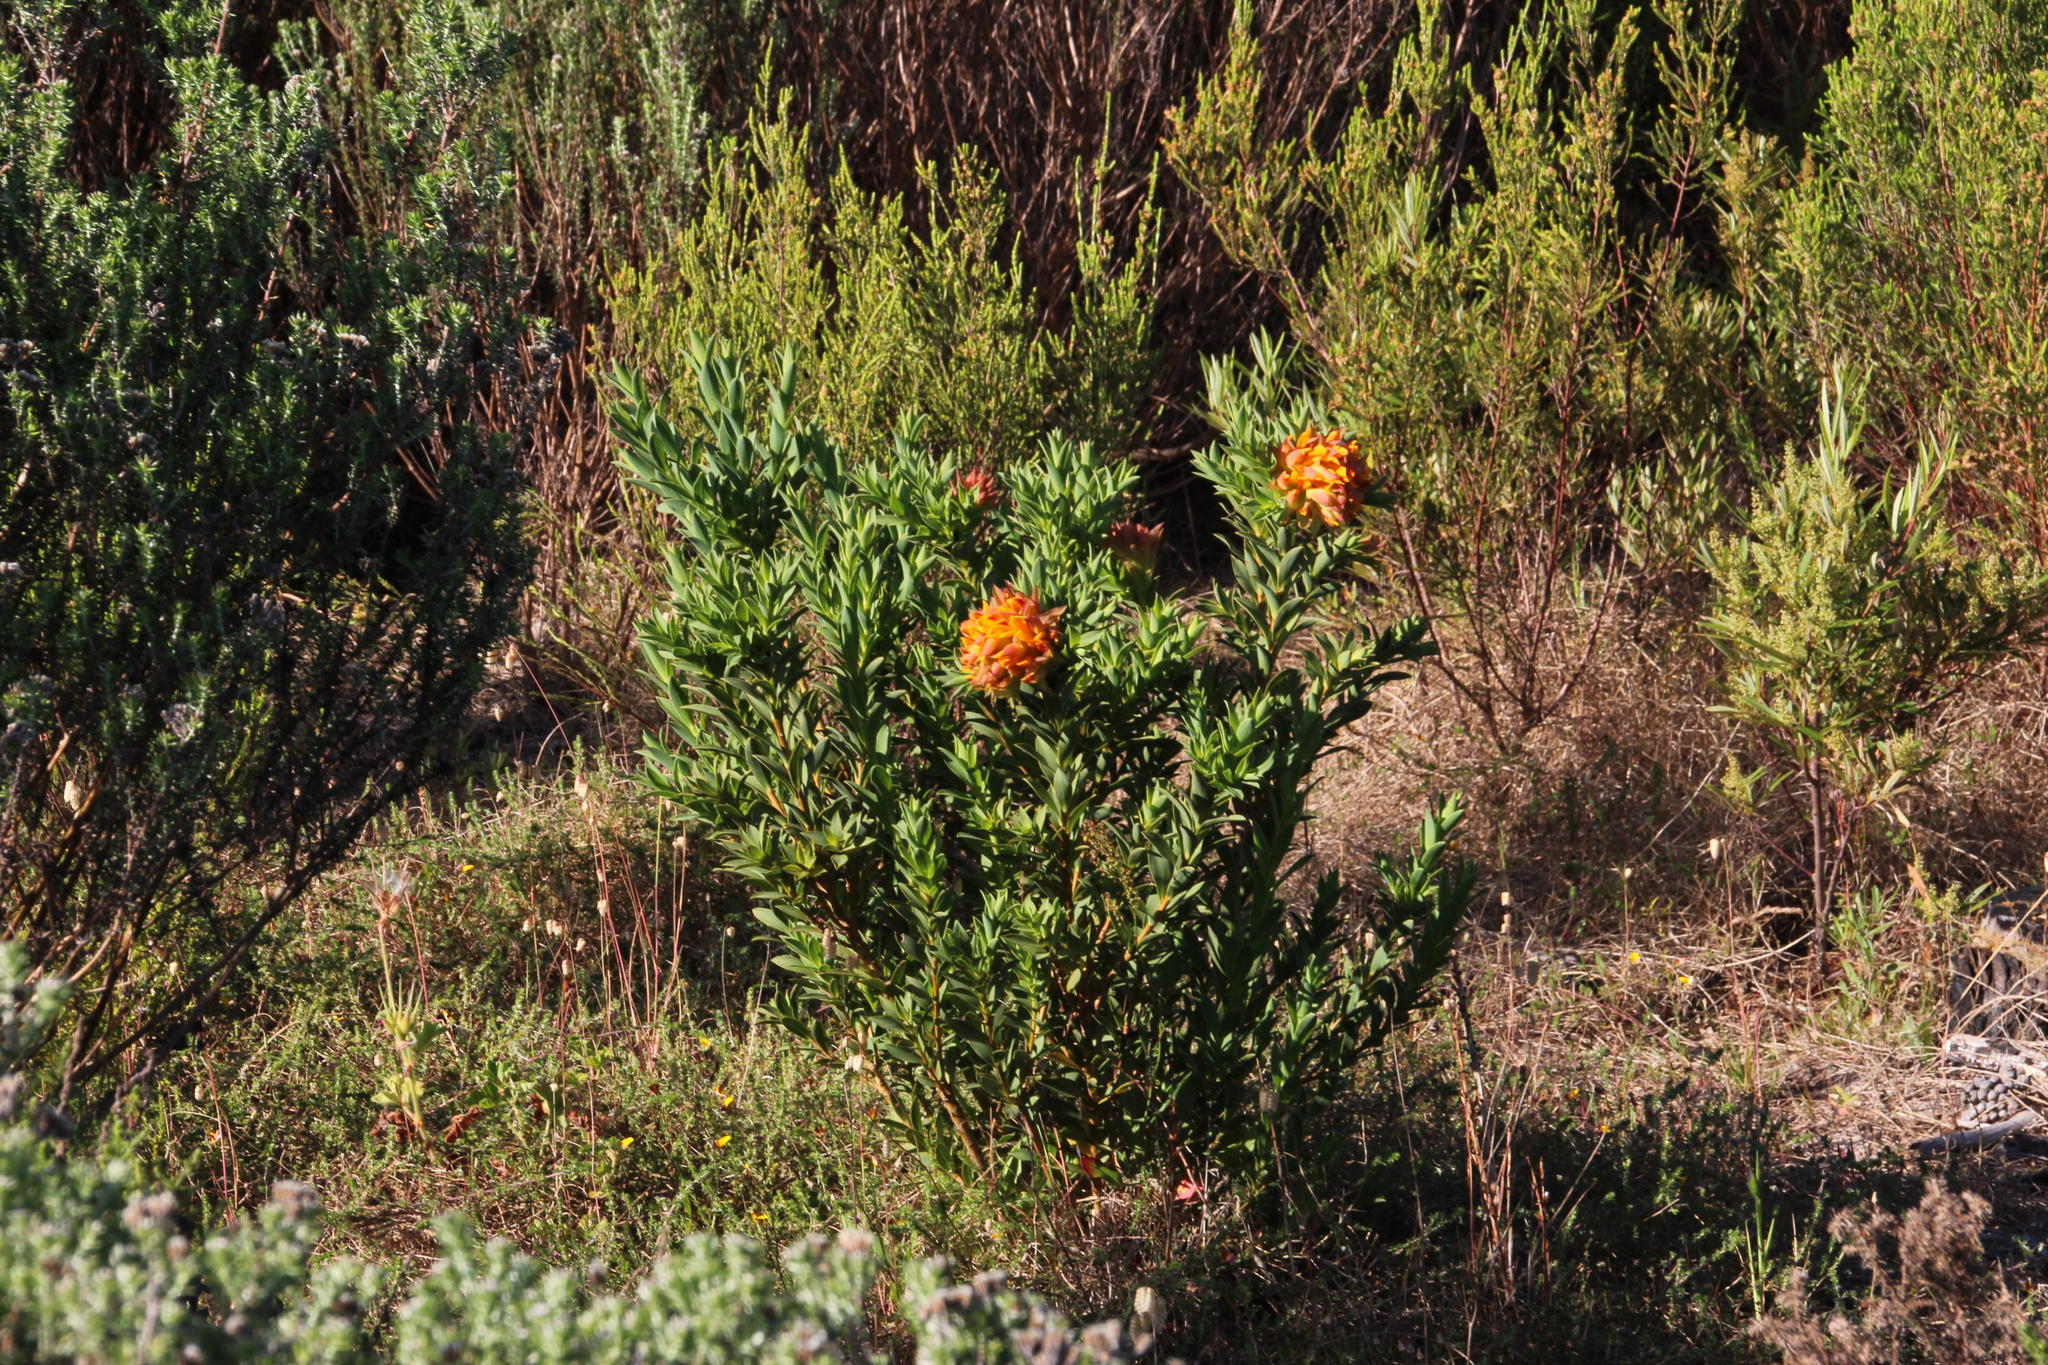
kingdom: Plantae
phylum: Tracheophyta
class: Magnoliopsida
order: Fabales
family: Fabaceae
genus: Liparia
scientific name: Liparia splendens
